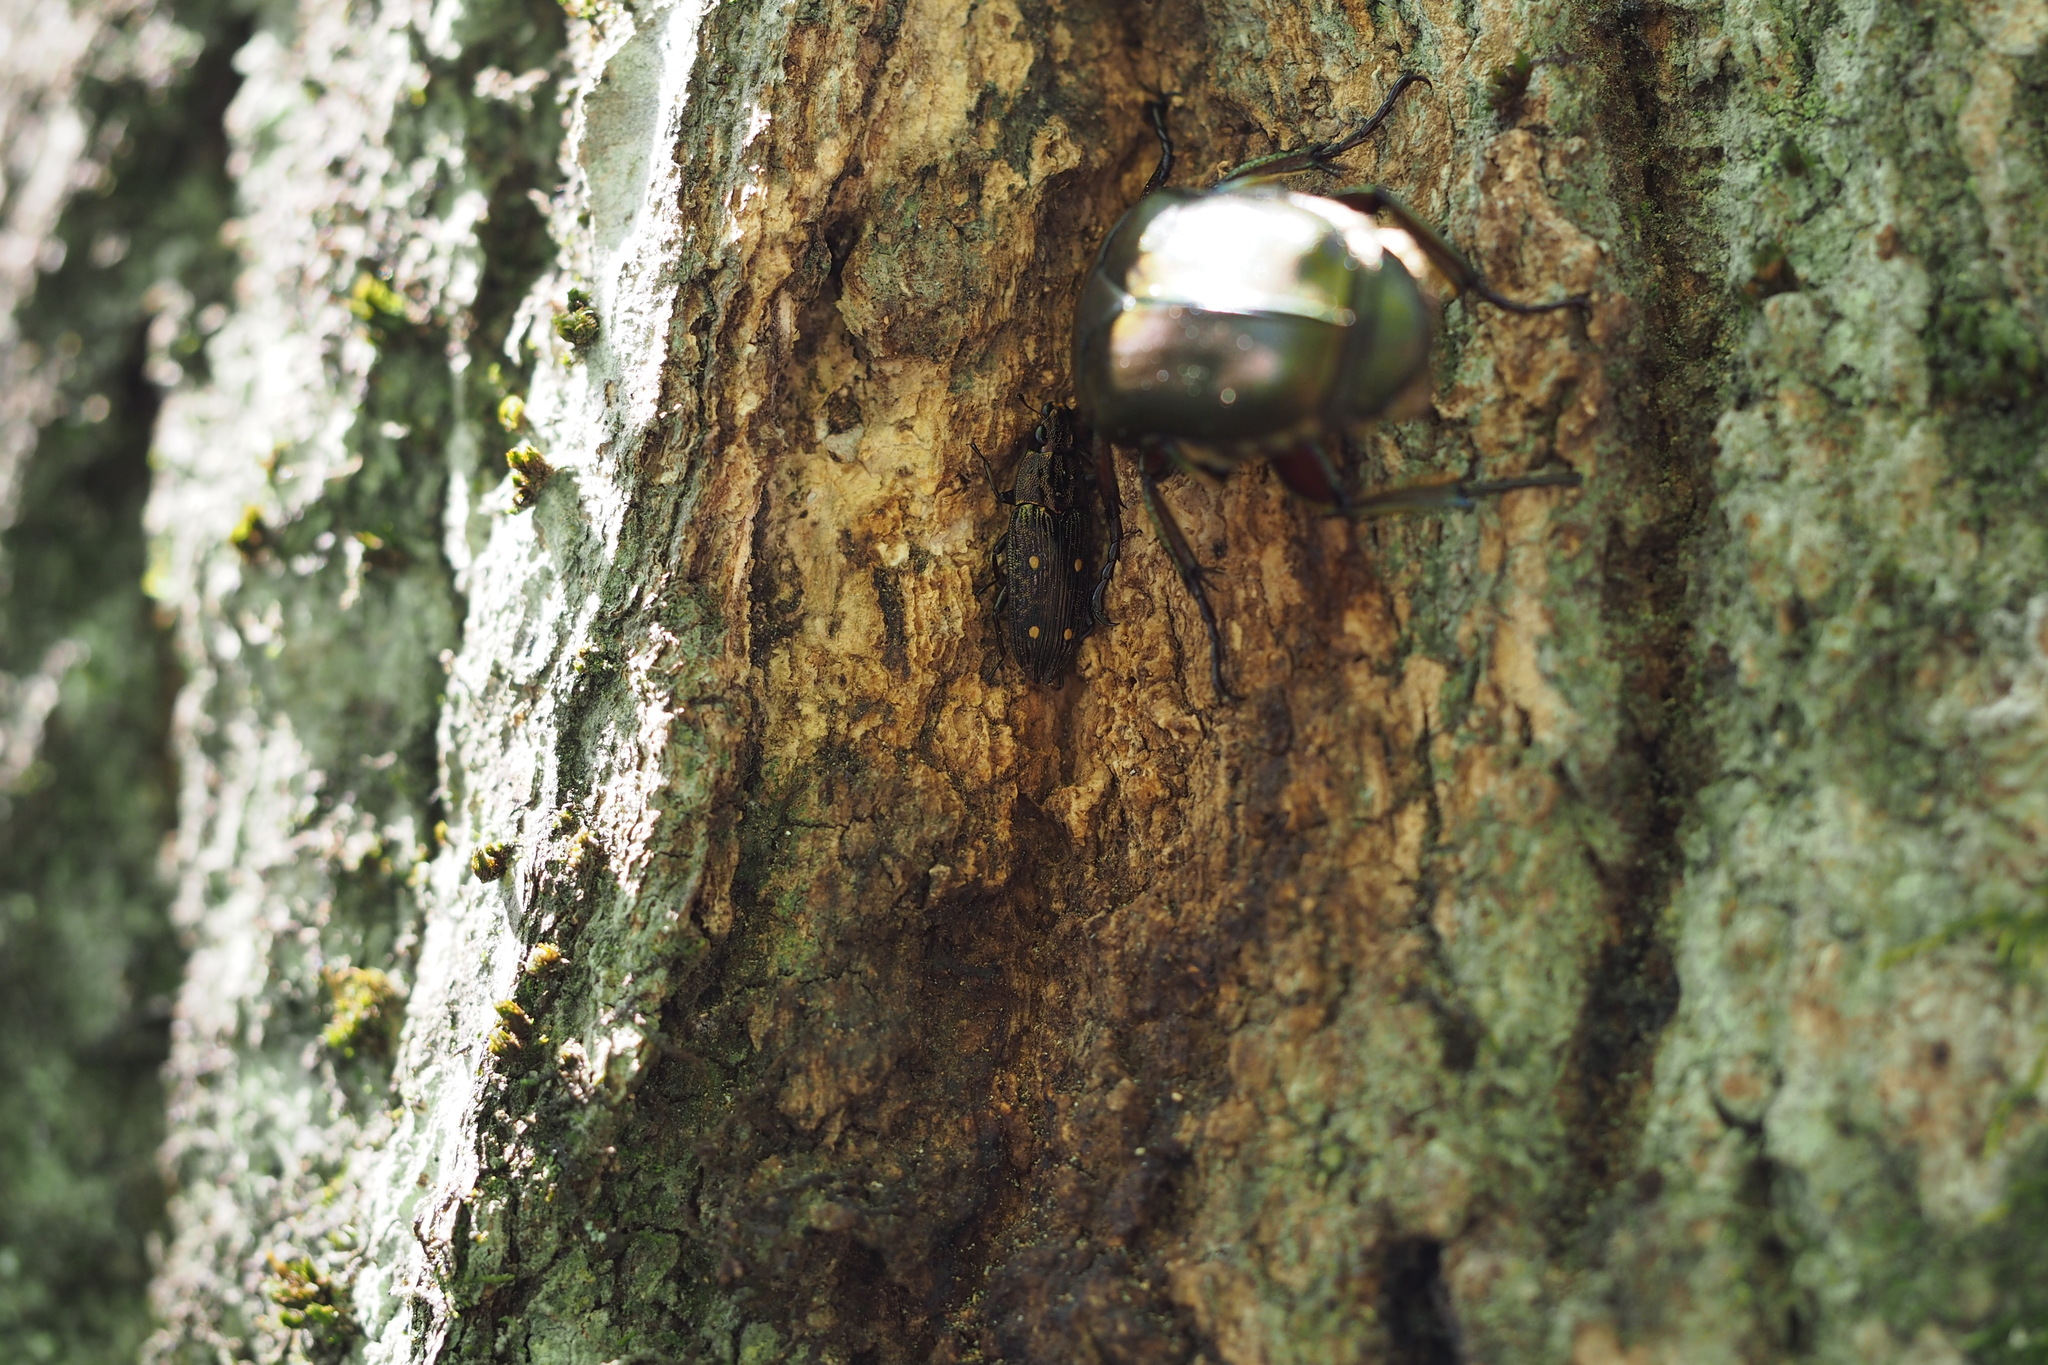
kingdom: Animalia
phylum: Arthropoda
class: Insecta
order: Coleoptera
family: Helotidae
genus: Helota
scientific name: Helota
